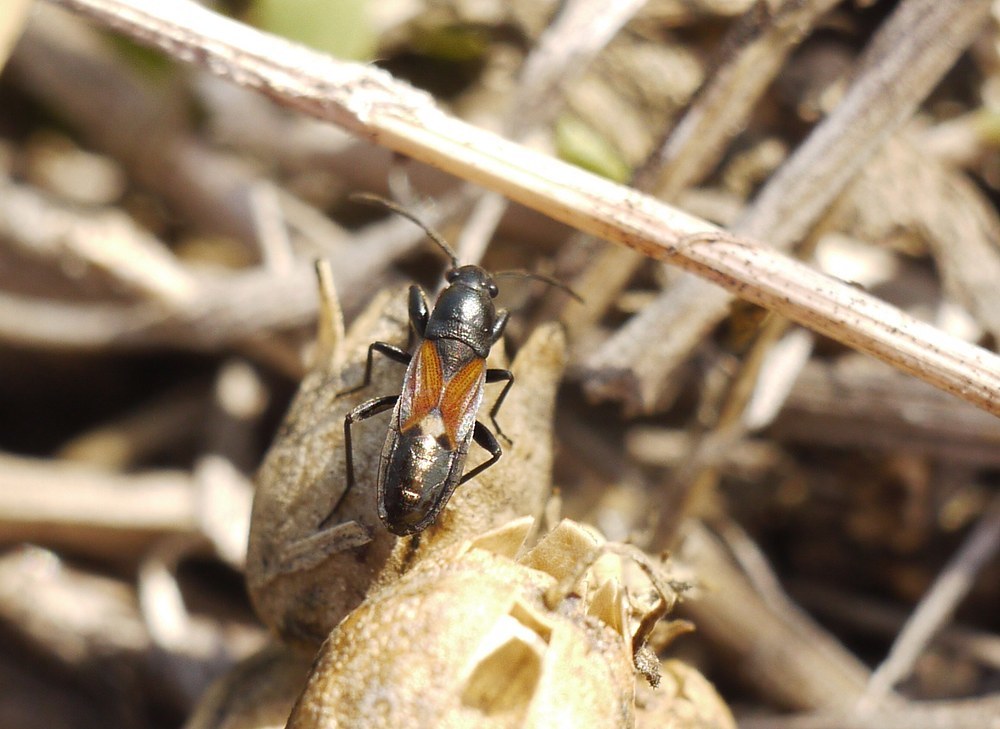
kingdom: Animalia
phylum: Arthropoda
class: Insecta
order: Hemiptera
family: Rhyparochromidae
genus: Pterotmetus
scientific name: Pterotmetus staphyliniformis
